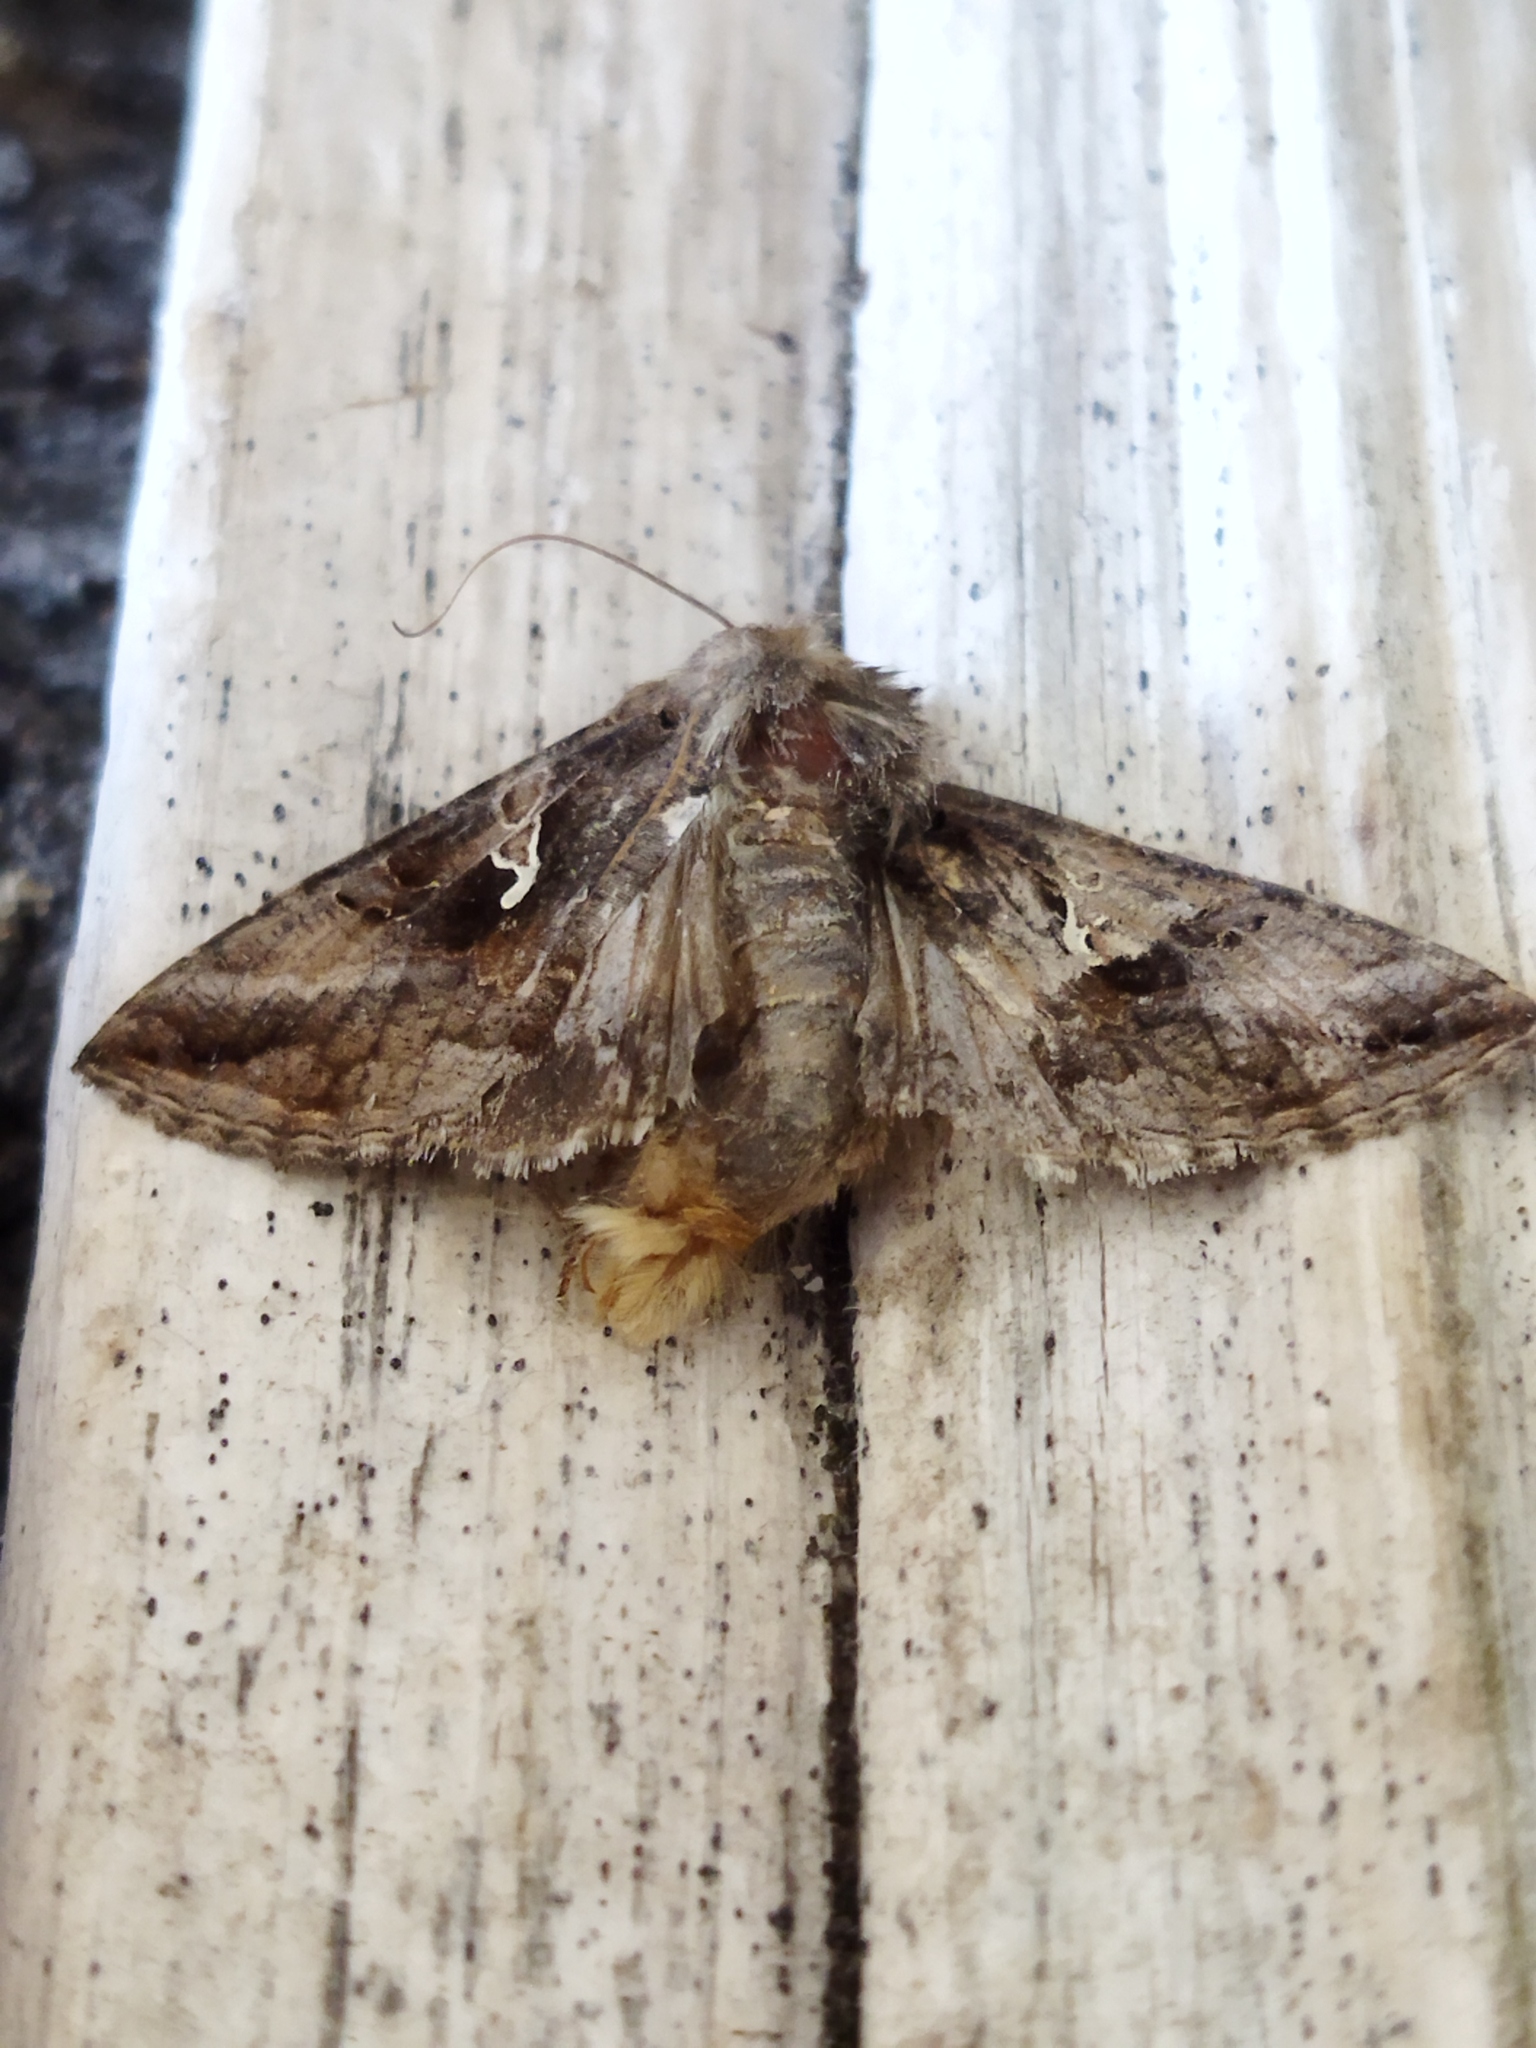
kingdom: Animalia
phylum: Arthropoda
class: Insecta
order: Lepidoptera
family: Noctuidae
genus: Autographa
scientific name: Autographa gamma
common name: Silver y
